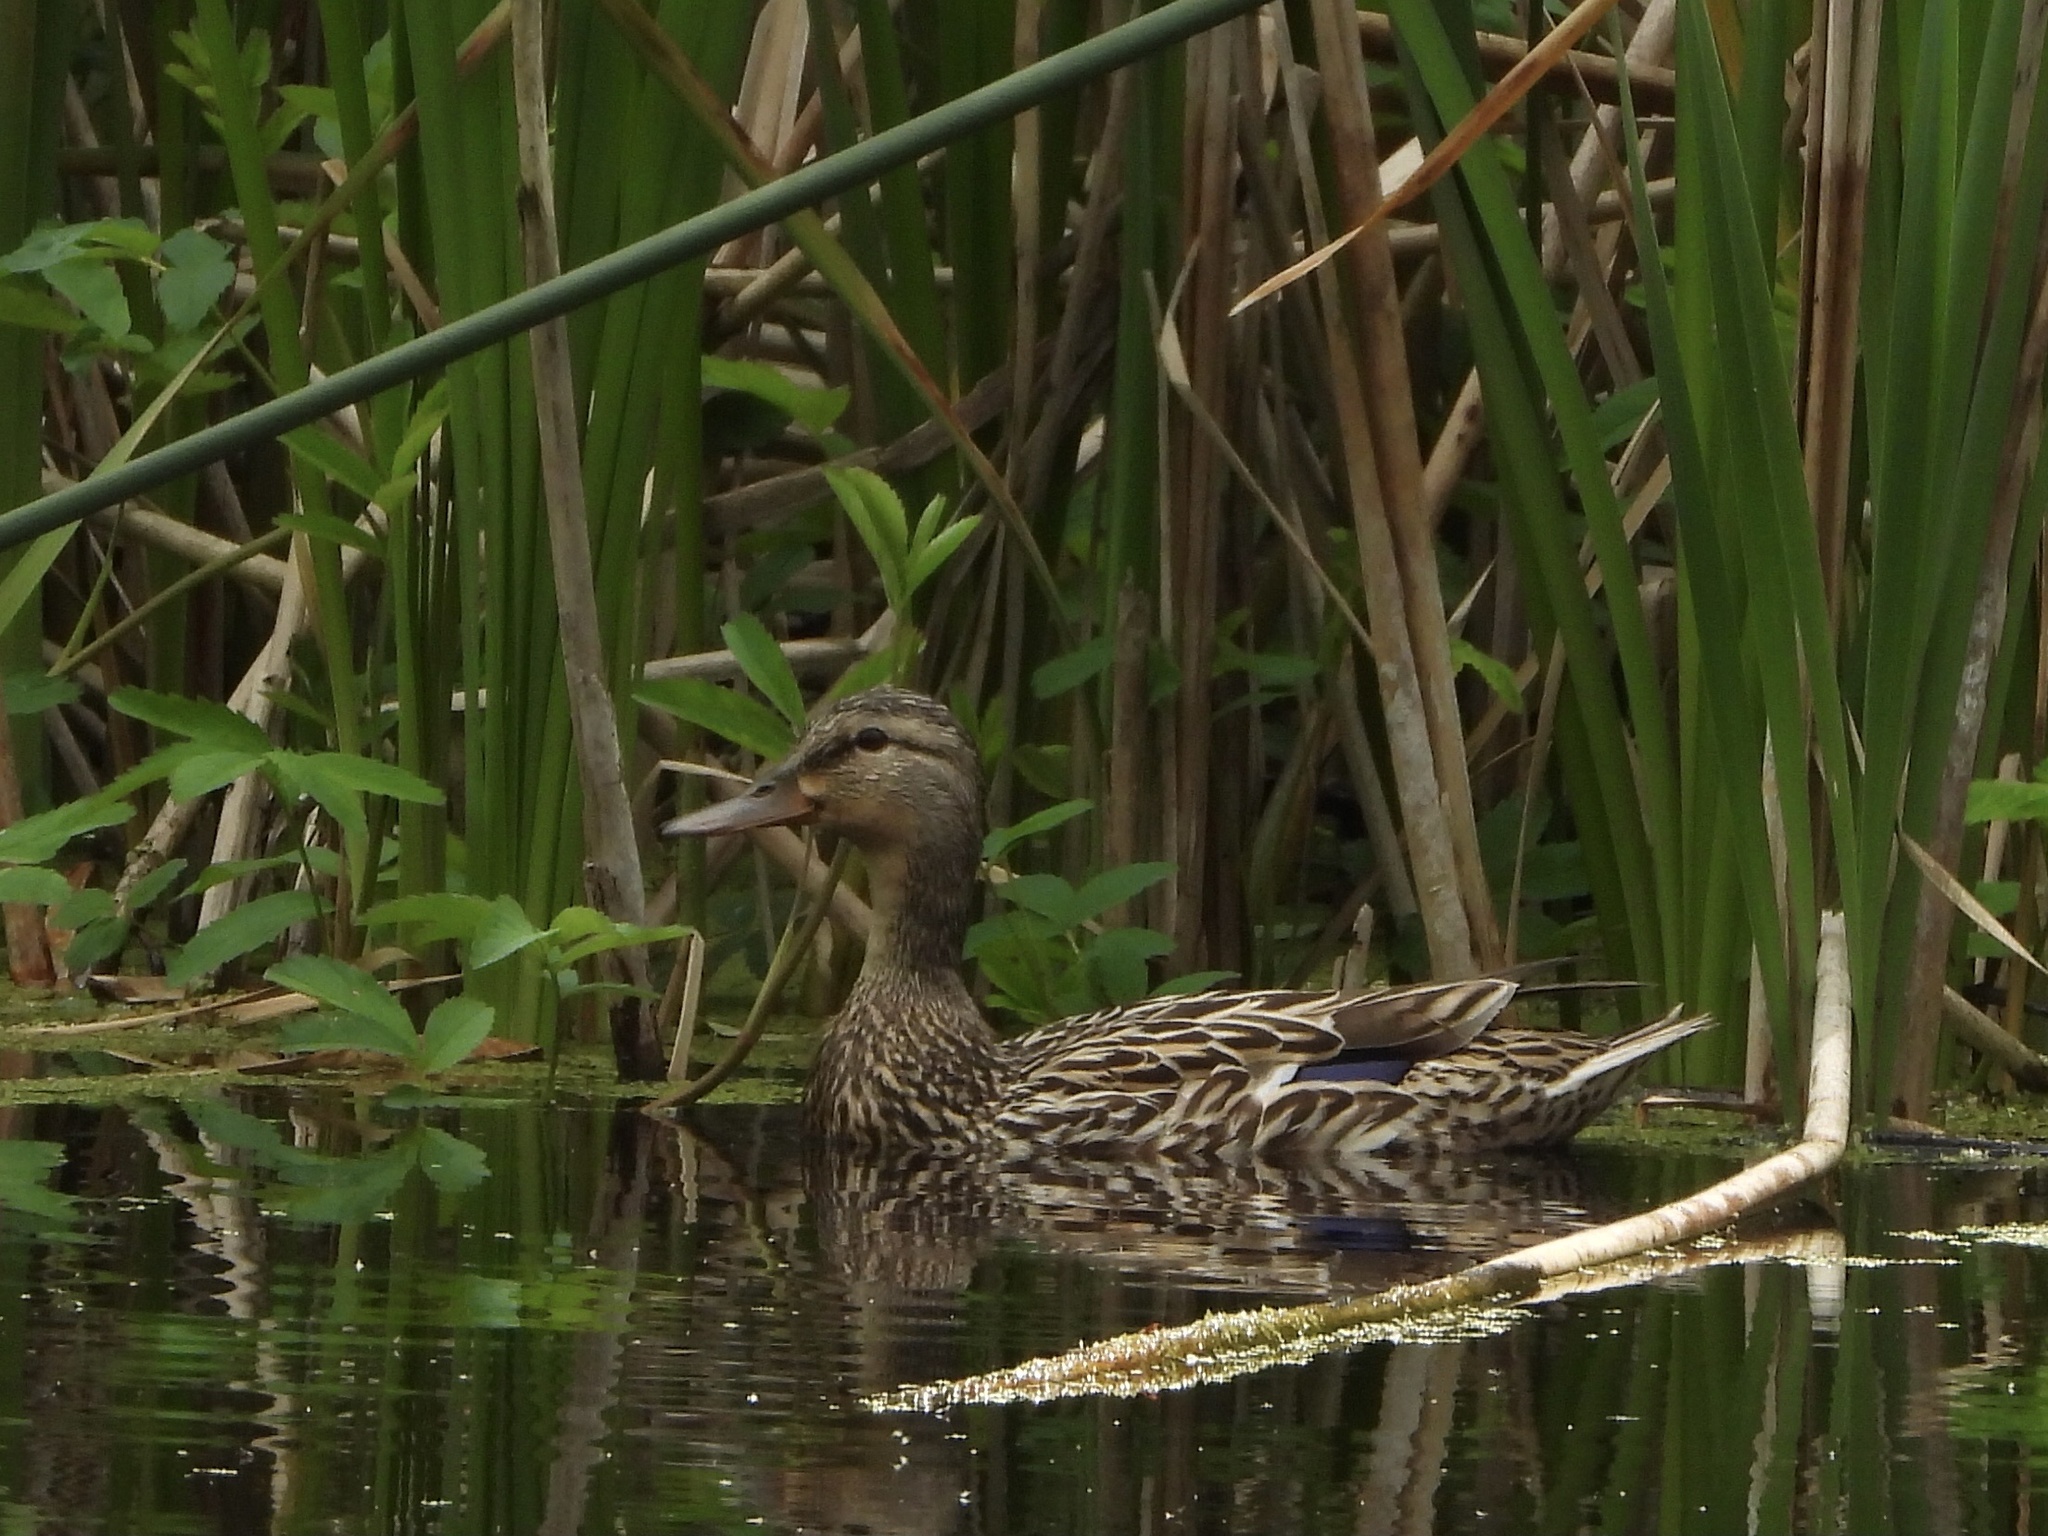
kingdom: Animalia
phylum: Chordata
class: Aves
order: Anseriformes
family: Anatidae
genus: Anas
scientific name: Anas platyrhynchos
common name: Mallard
